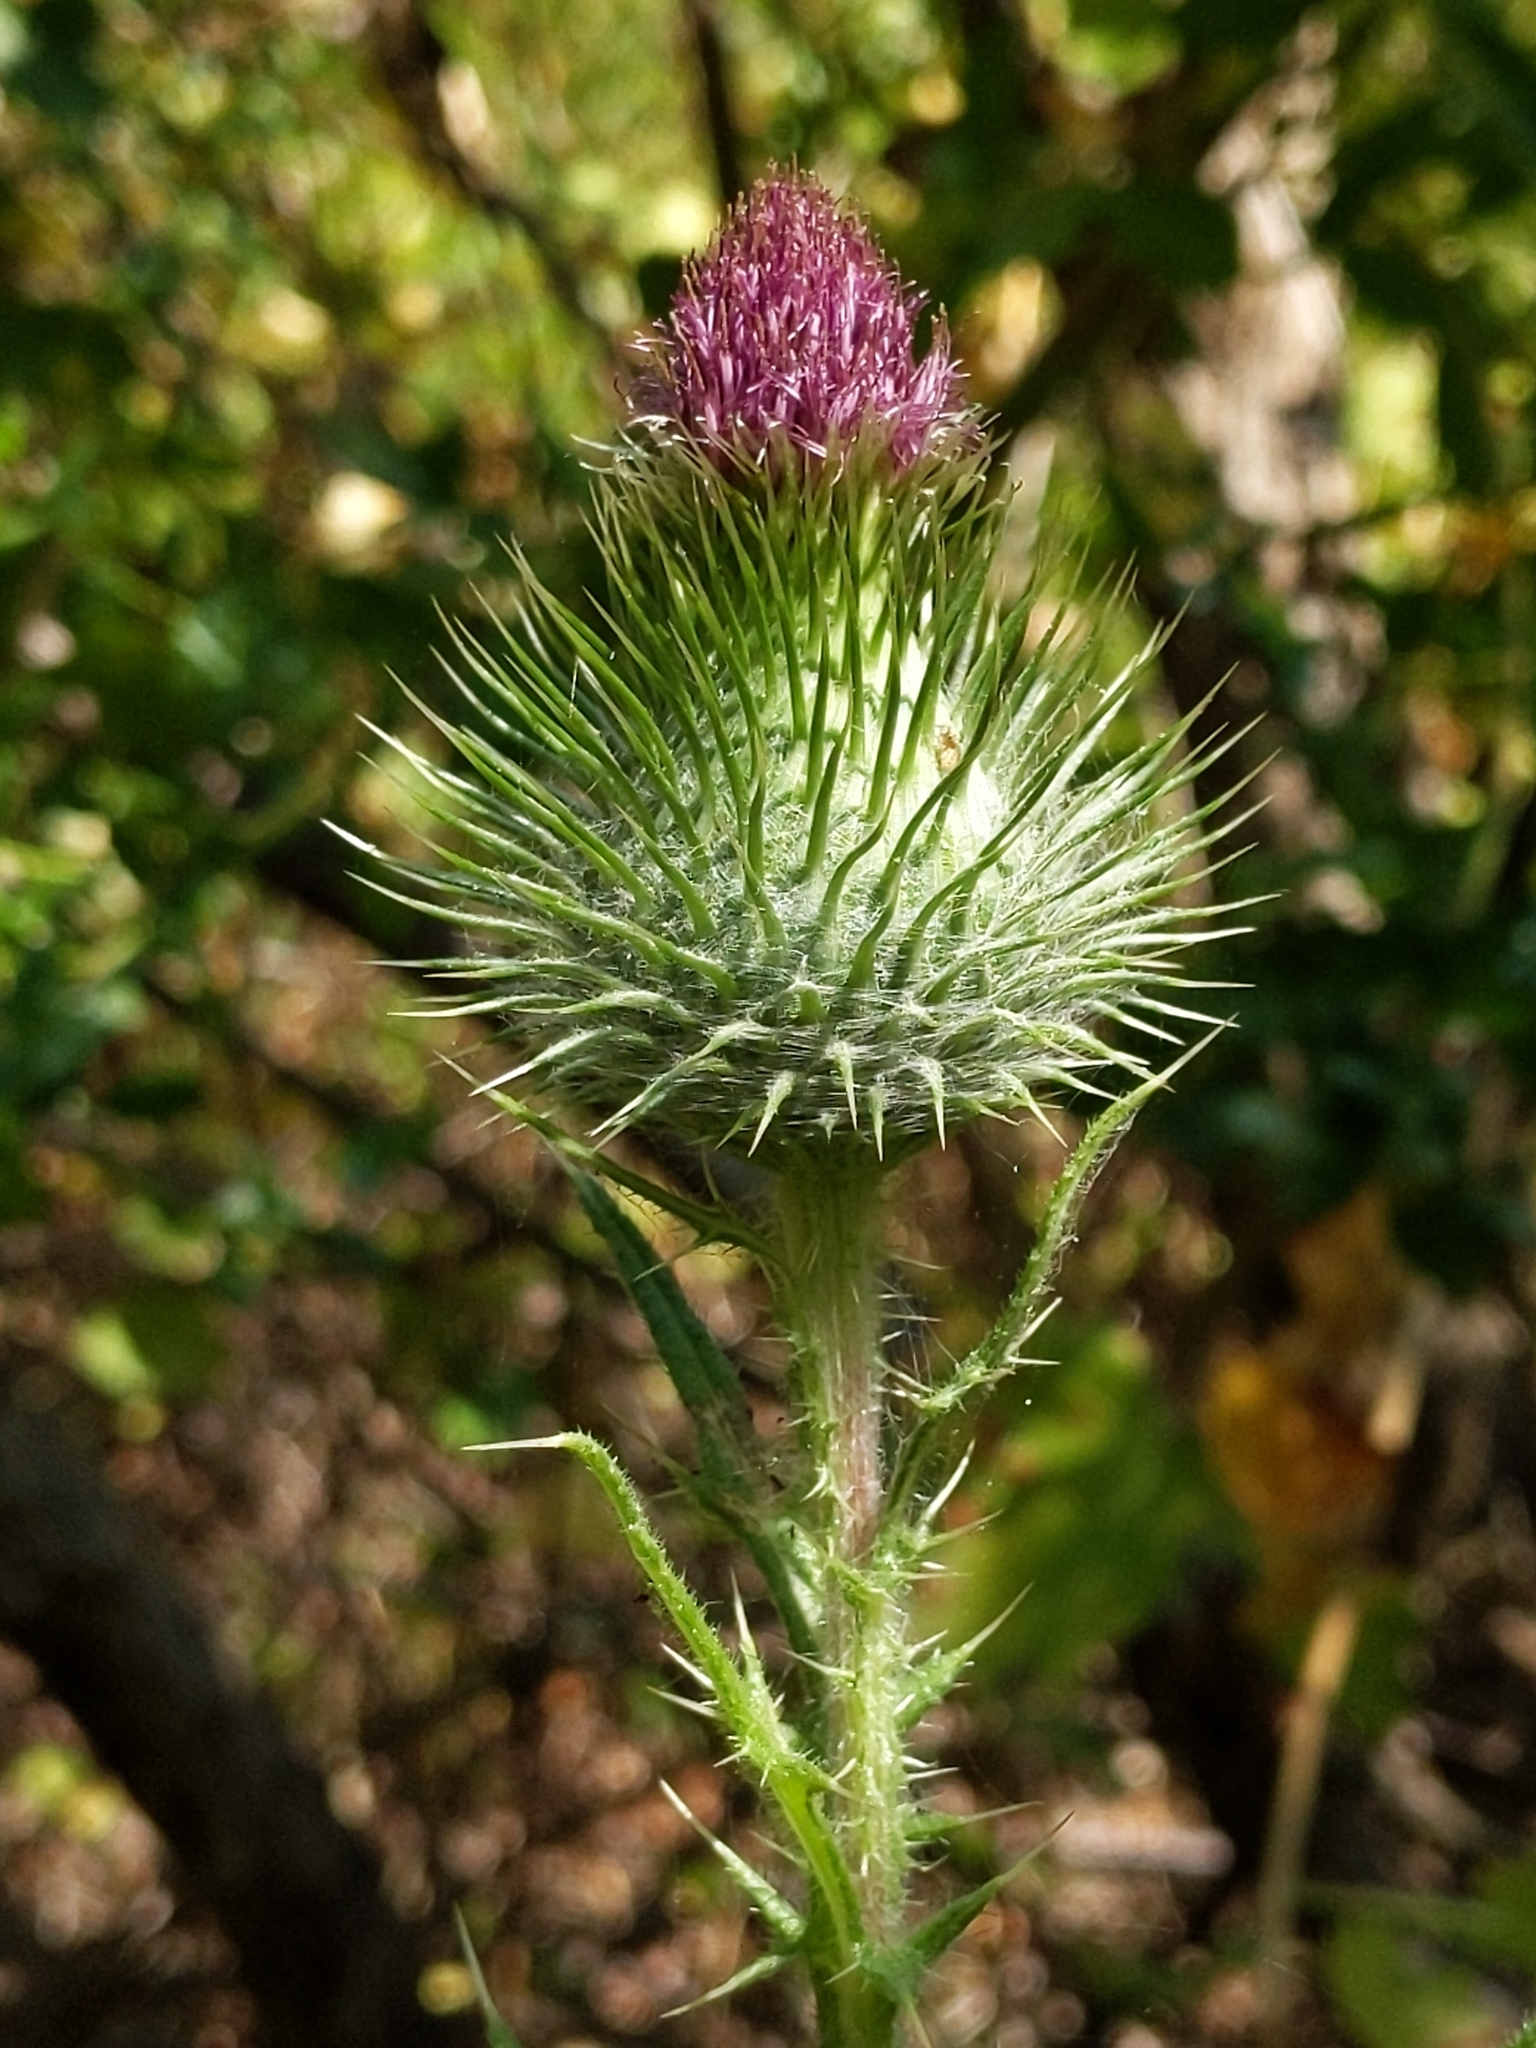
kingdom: Plantae
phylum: Tracheophyta
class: Magnoliopsida
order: Asterales
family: Asteraceae
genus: Cirsium
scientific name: Cirsium vulgare
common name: Bull thistle
